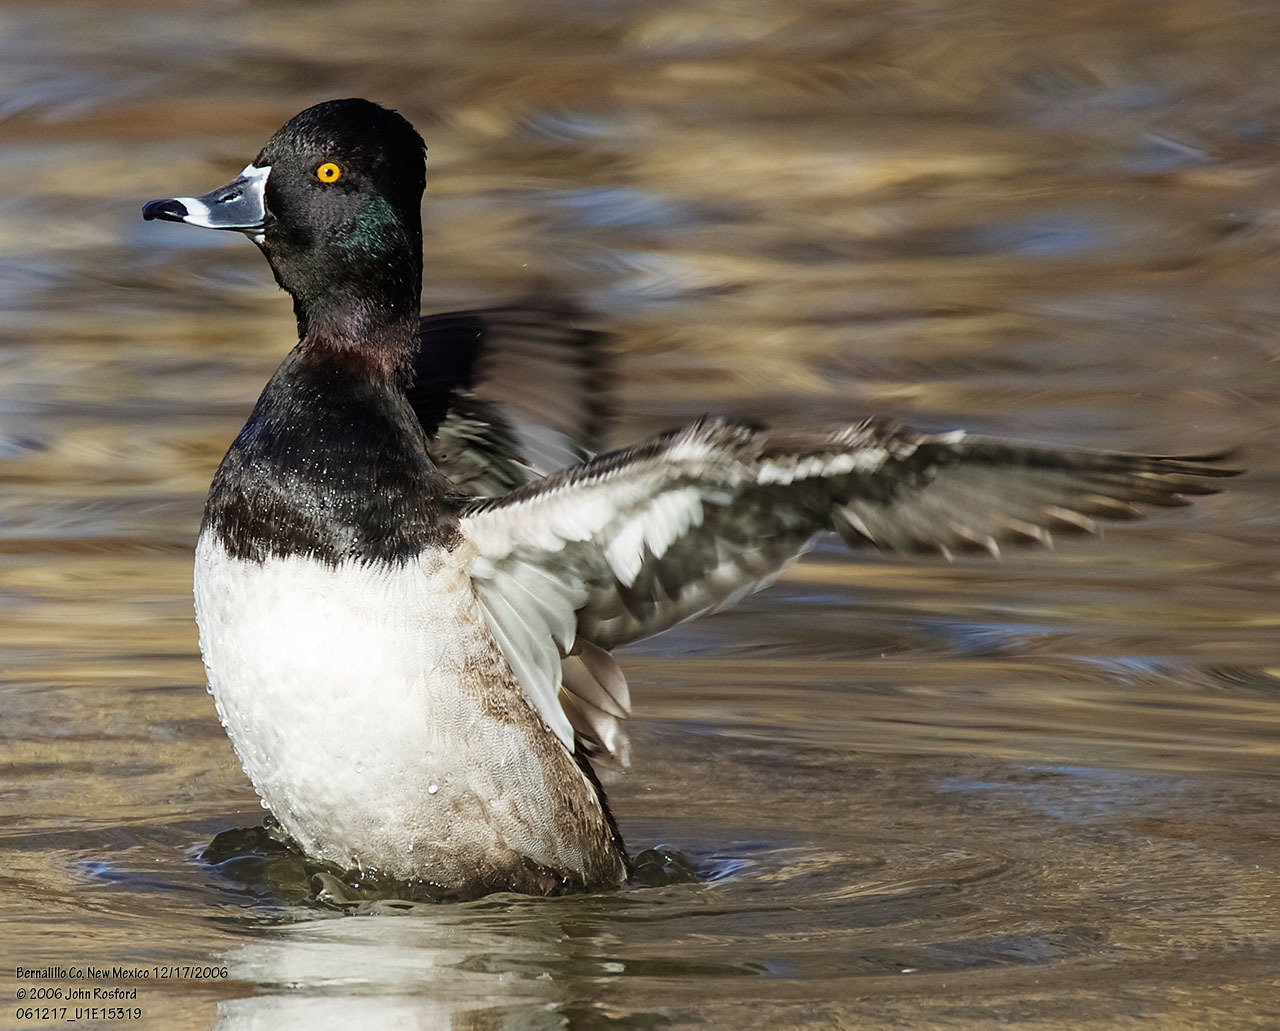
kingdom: Animalia
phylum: Chordata
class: Aves
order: Anseriformes
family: Anatidae
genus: Aythya
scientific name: Aythya collaris
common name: Ring-necked duck
